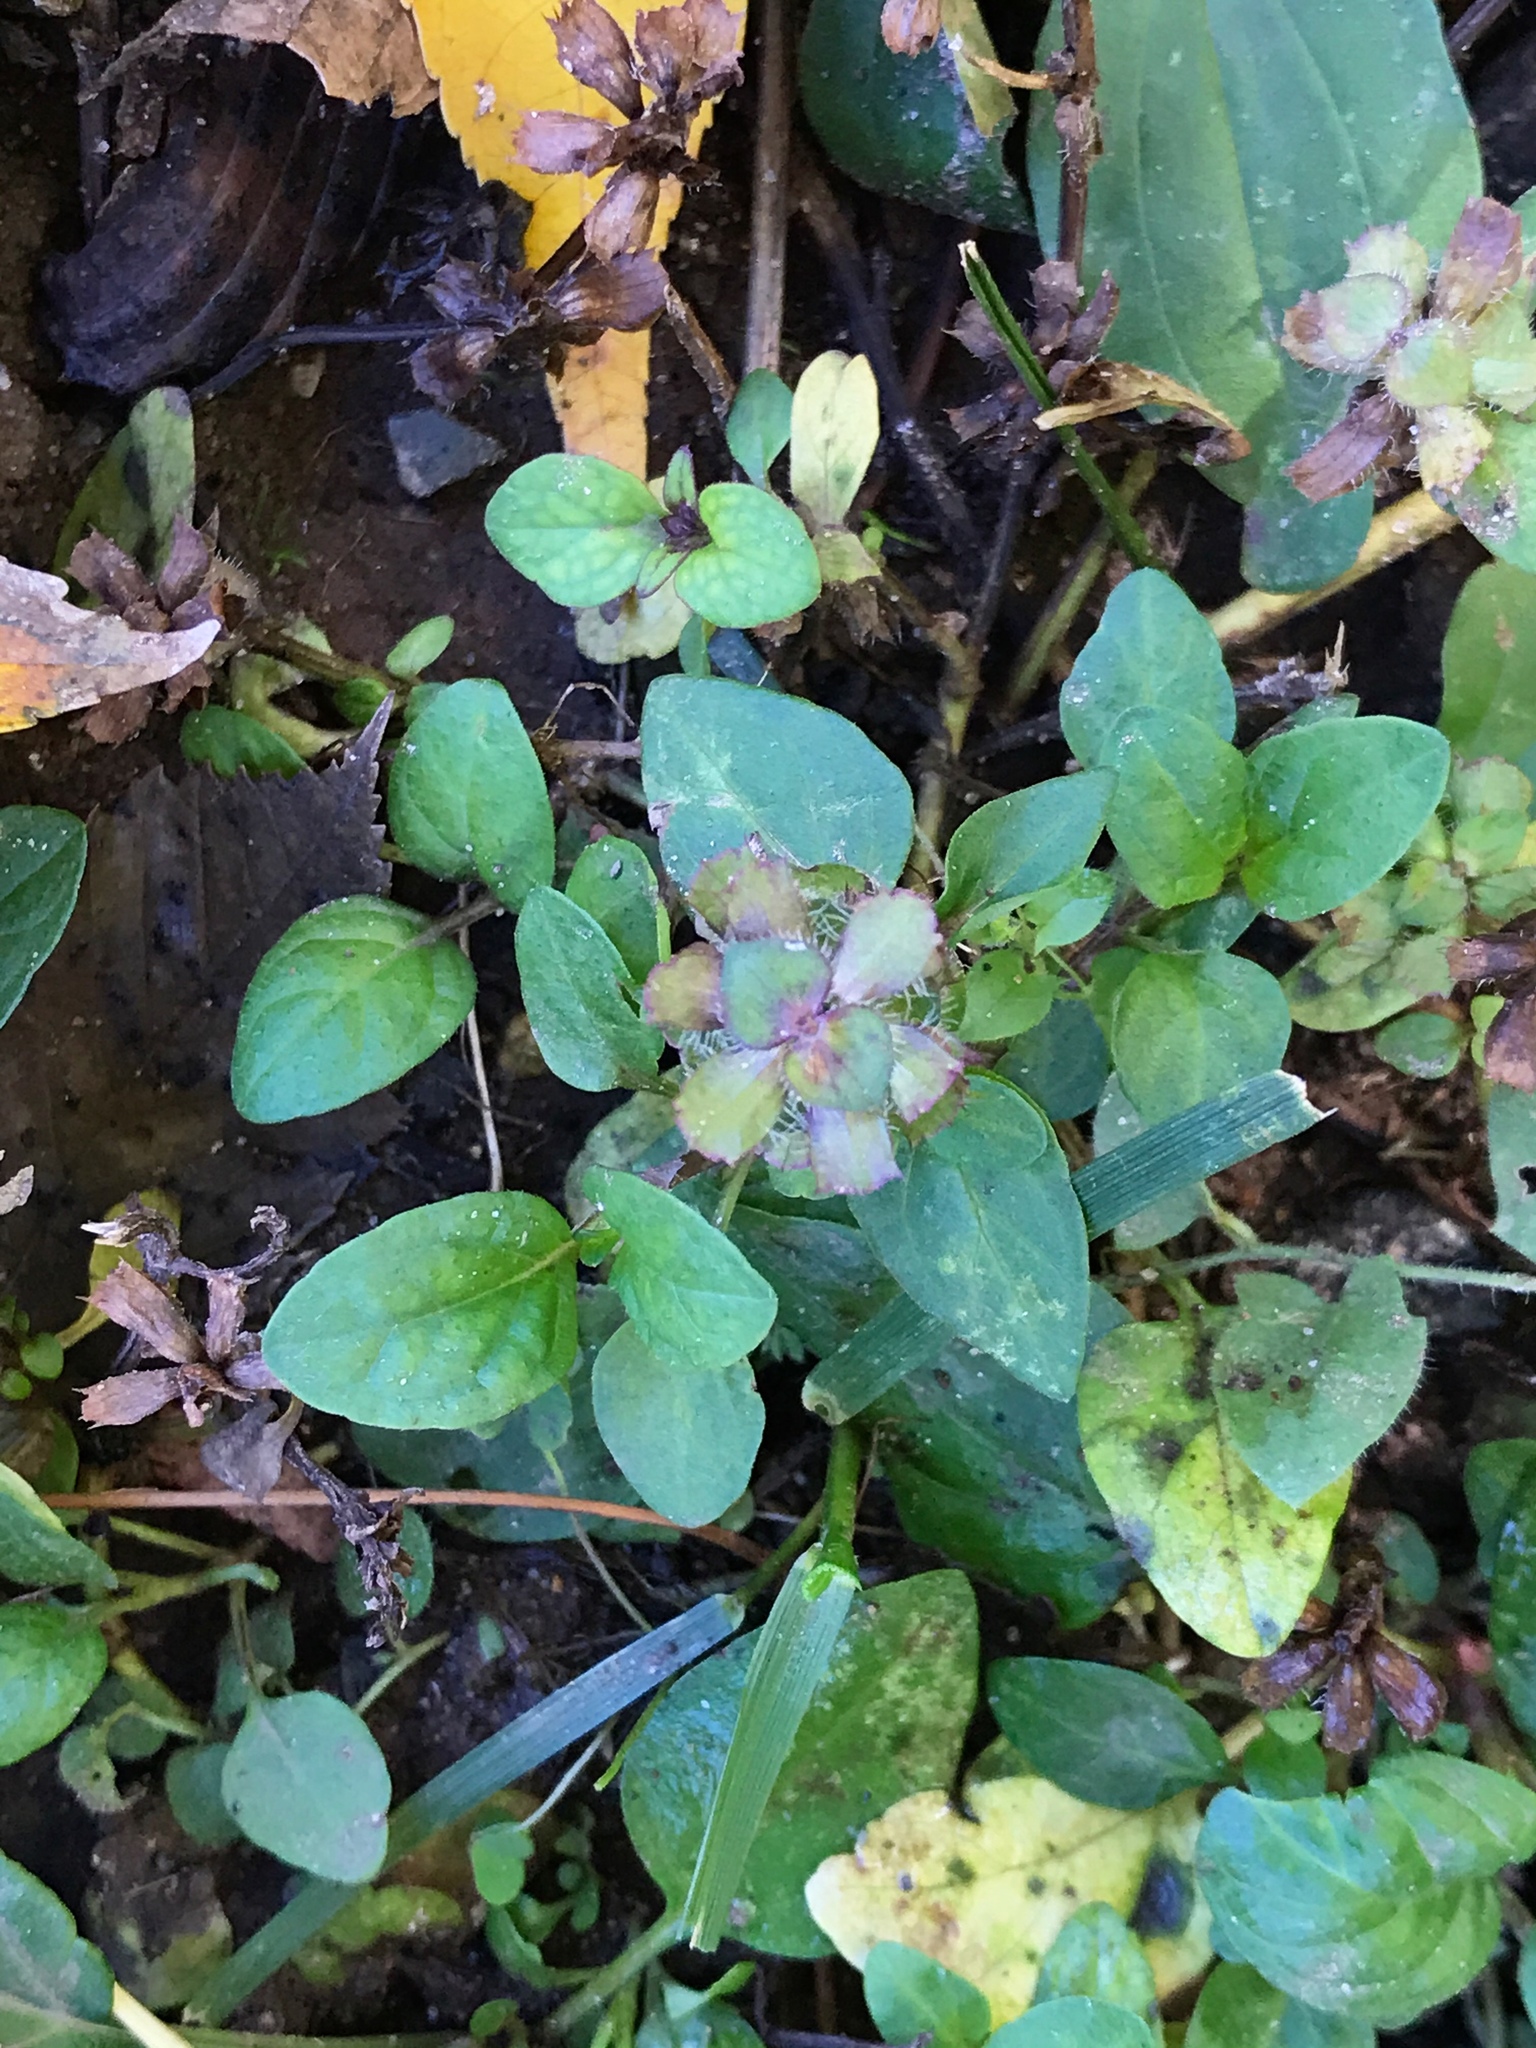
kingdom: Plantae
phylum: Tracheophyta
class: Magnoliopsida
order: Lamiales
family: Lamiaceae
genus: Prunella
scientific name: Prunella vulgaris
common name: Heal-all
